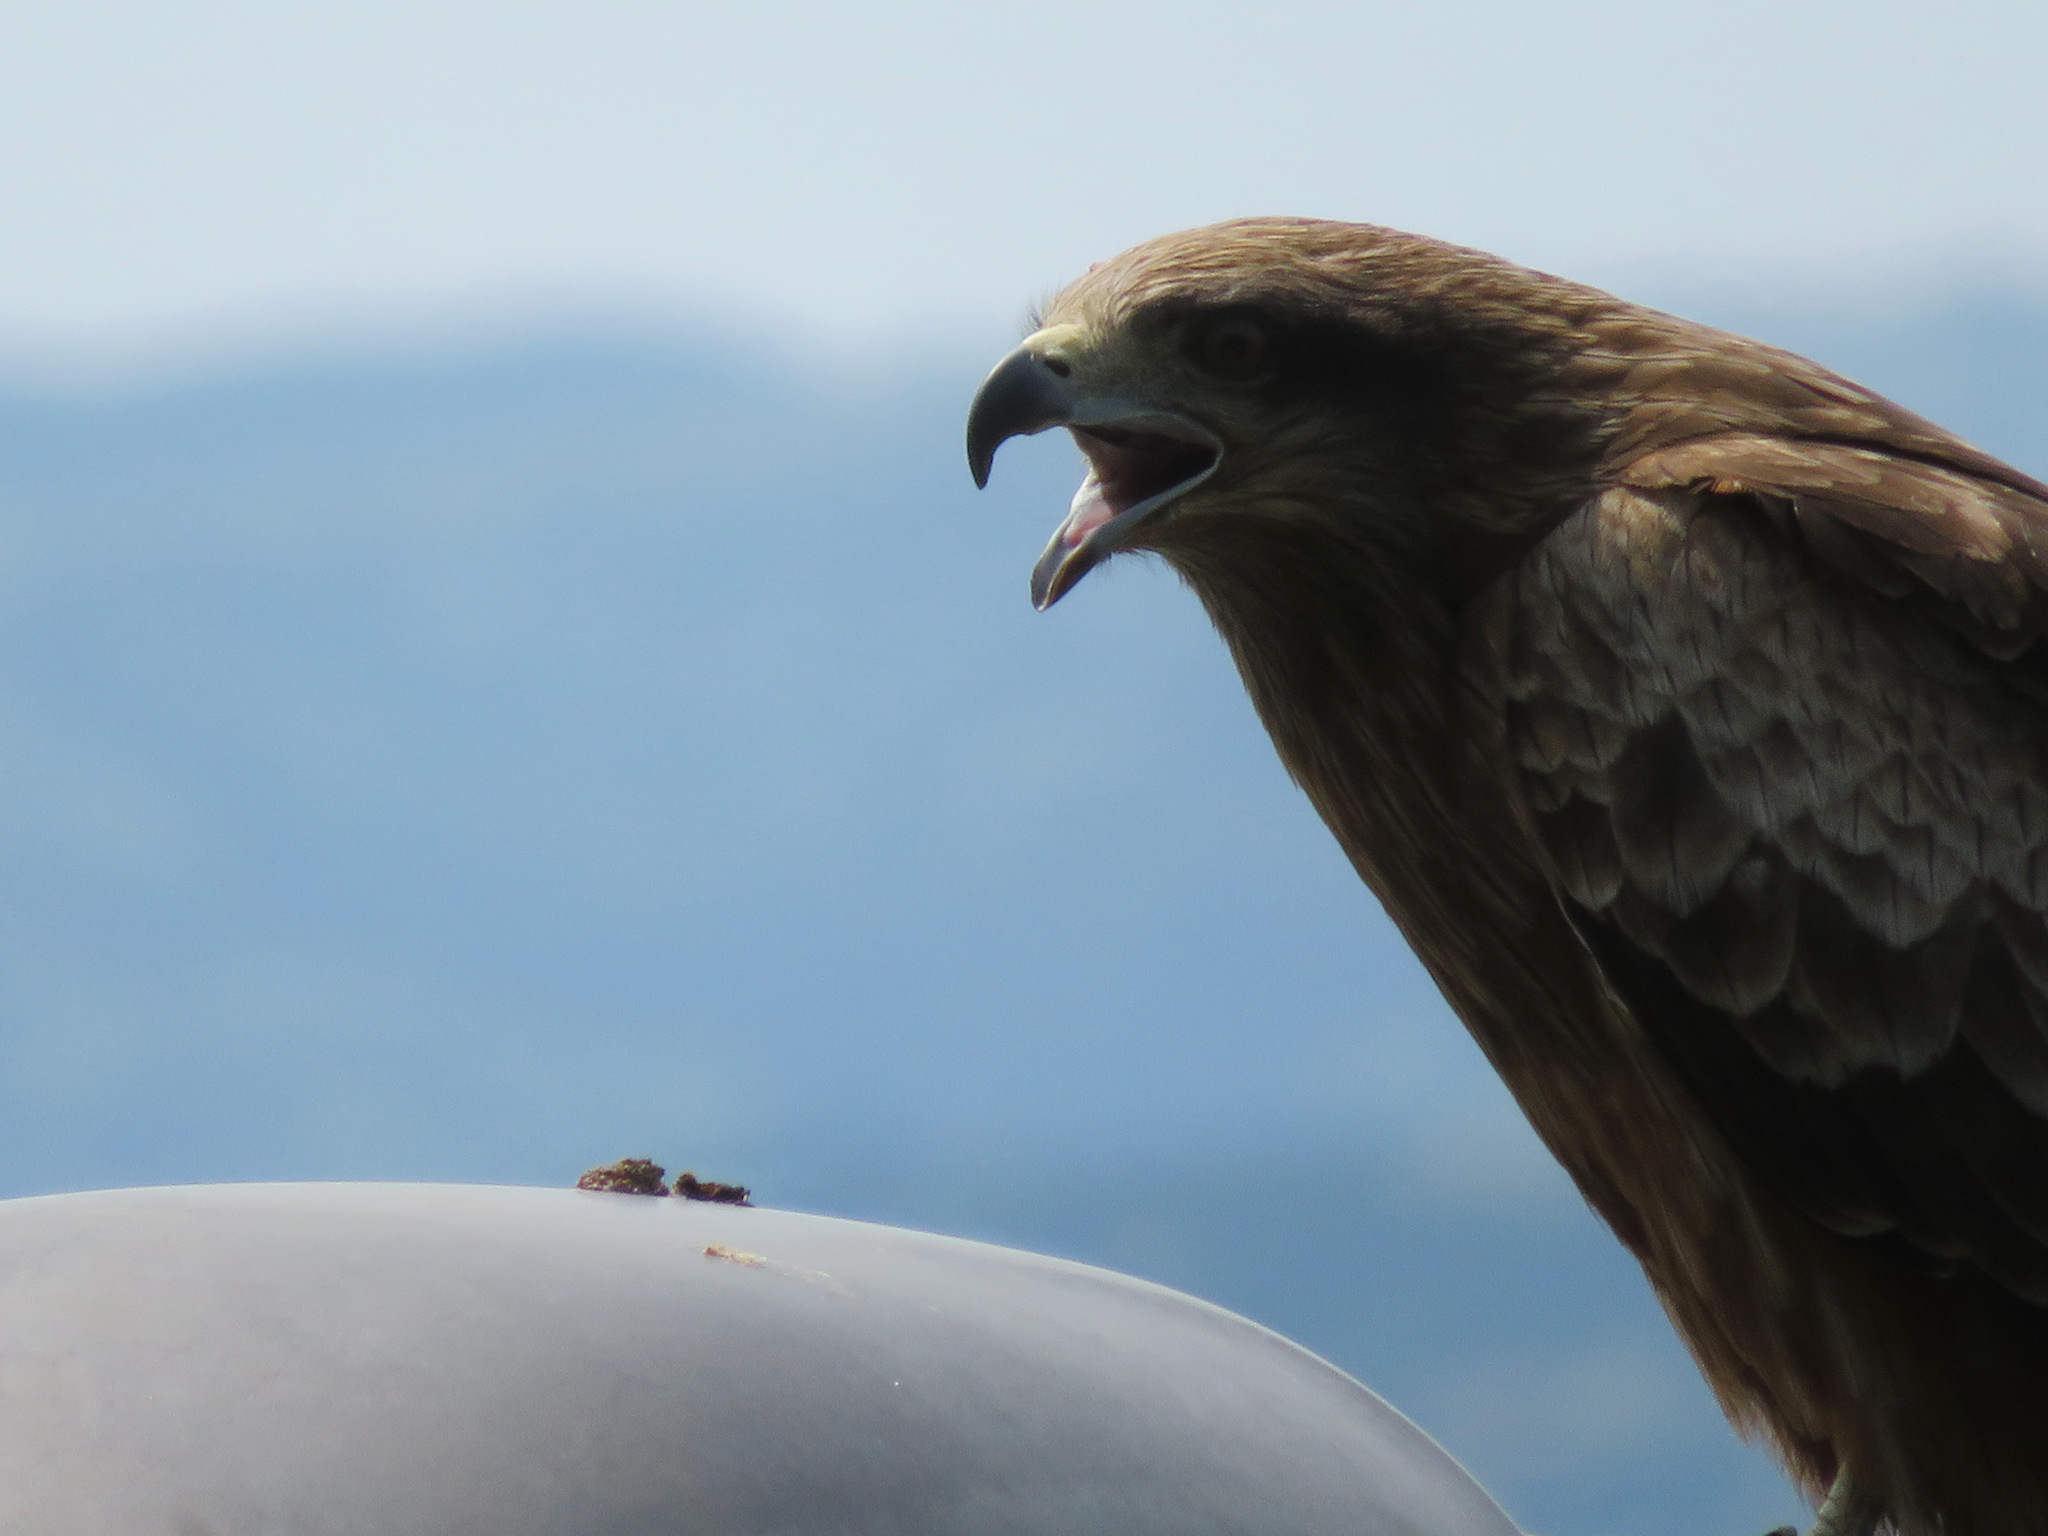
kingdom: Animalia
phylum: Chordata
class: Aves
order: Accipitriformes
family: Accipitridae
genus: Milvus
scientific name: Milvus migrans
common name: Black kite
